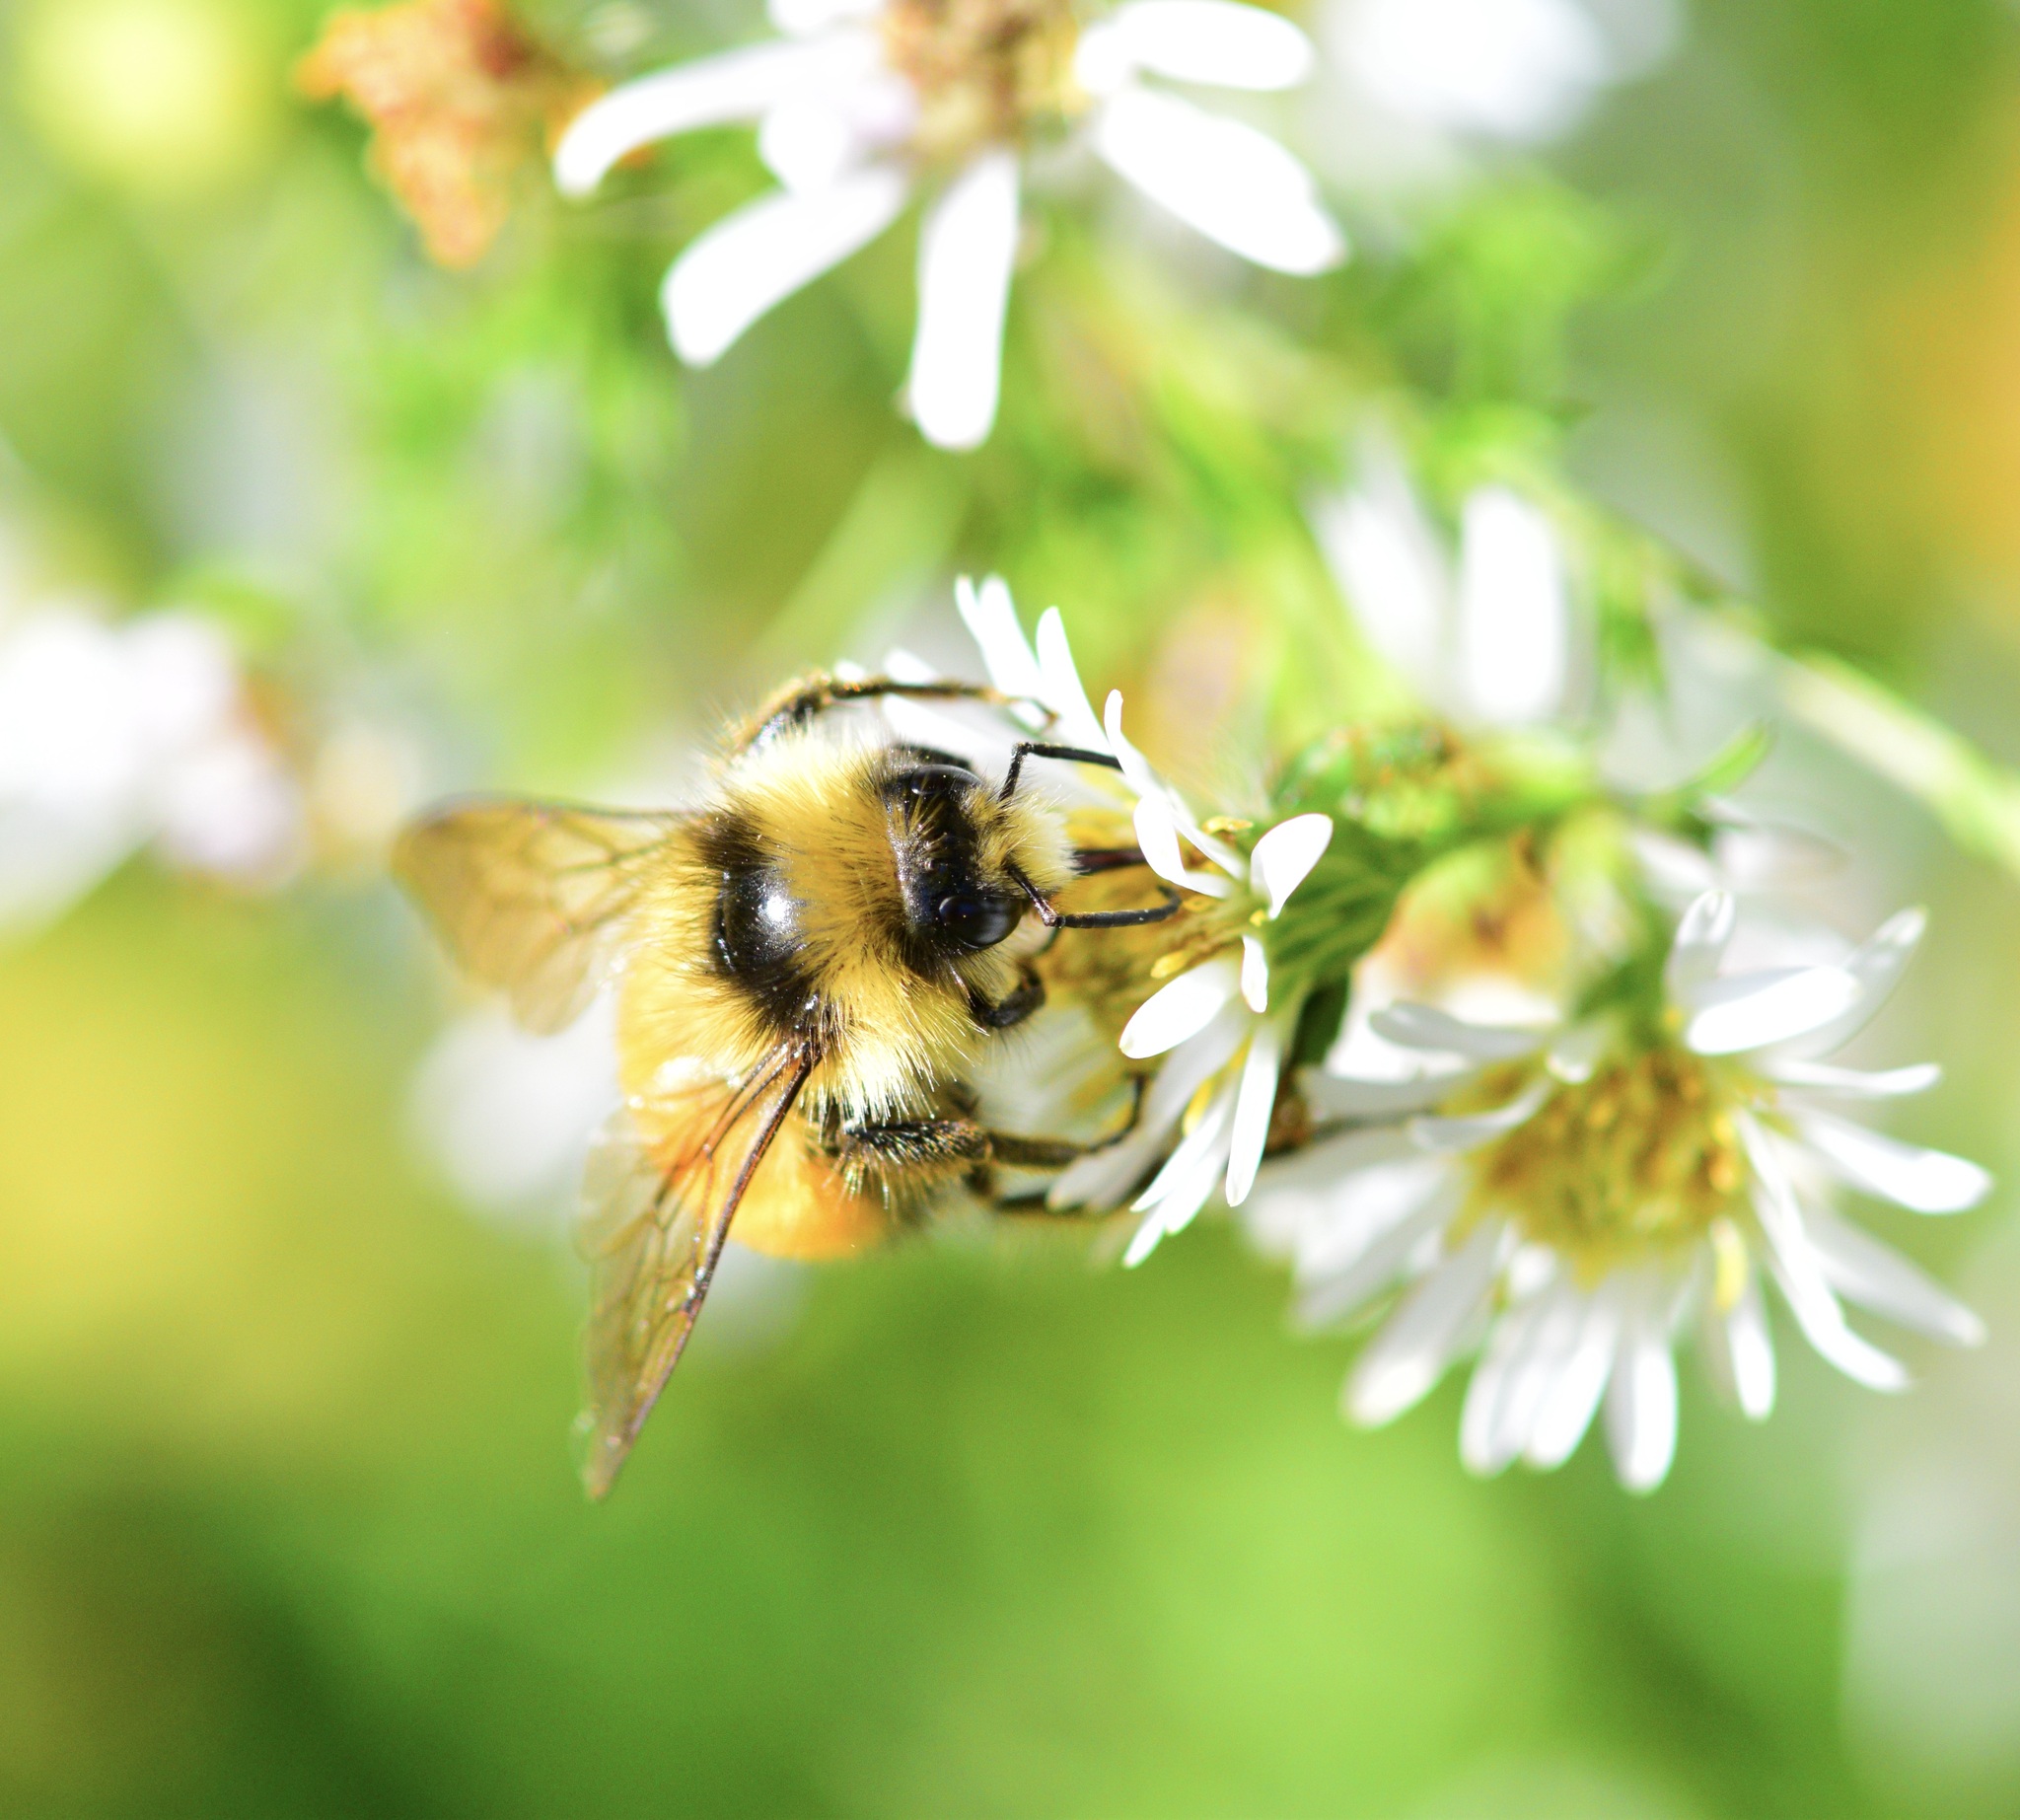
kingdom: Animalia
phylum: Arthropoda
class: Insecta
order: Hymenoptera
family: Apidae
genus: Bombus
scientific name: Bombus ternarius
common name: Tri-colored bumble bee
